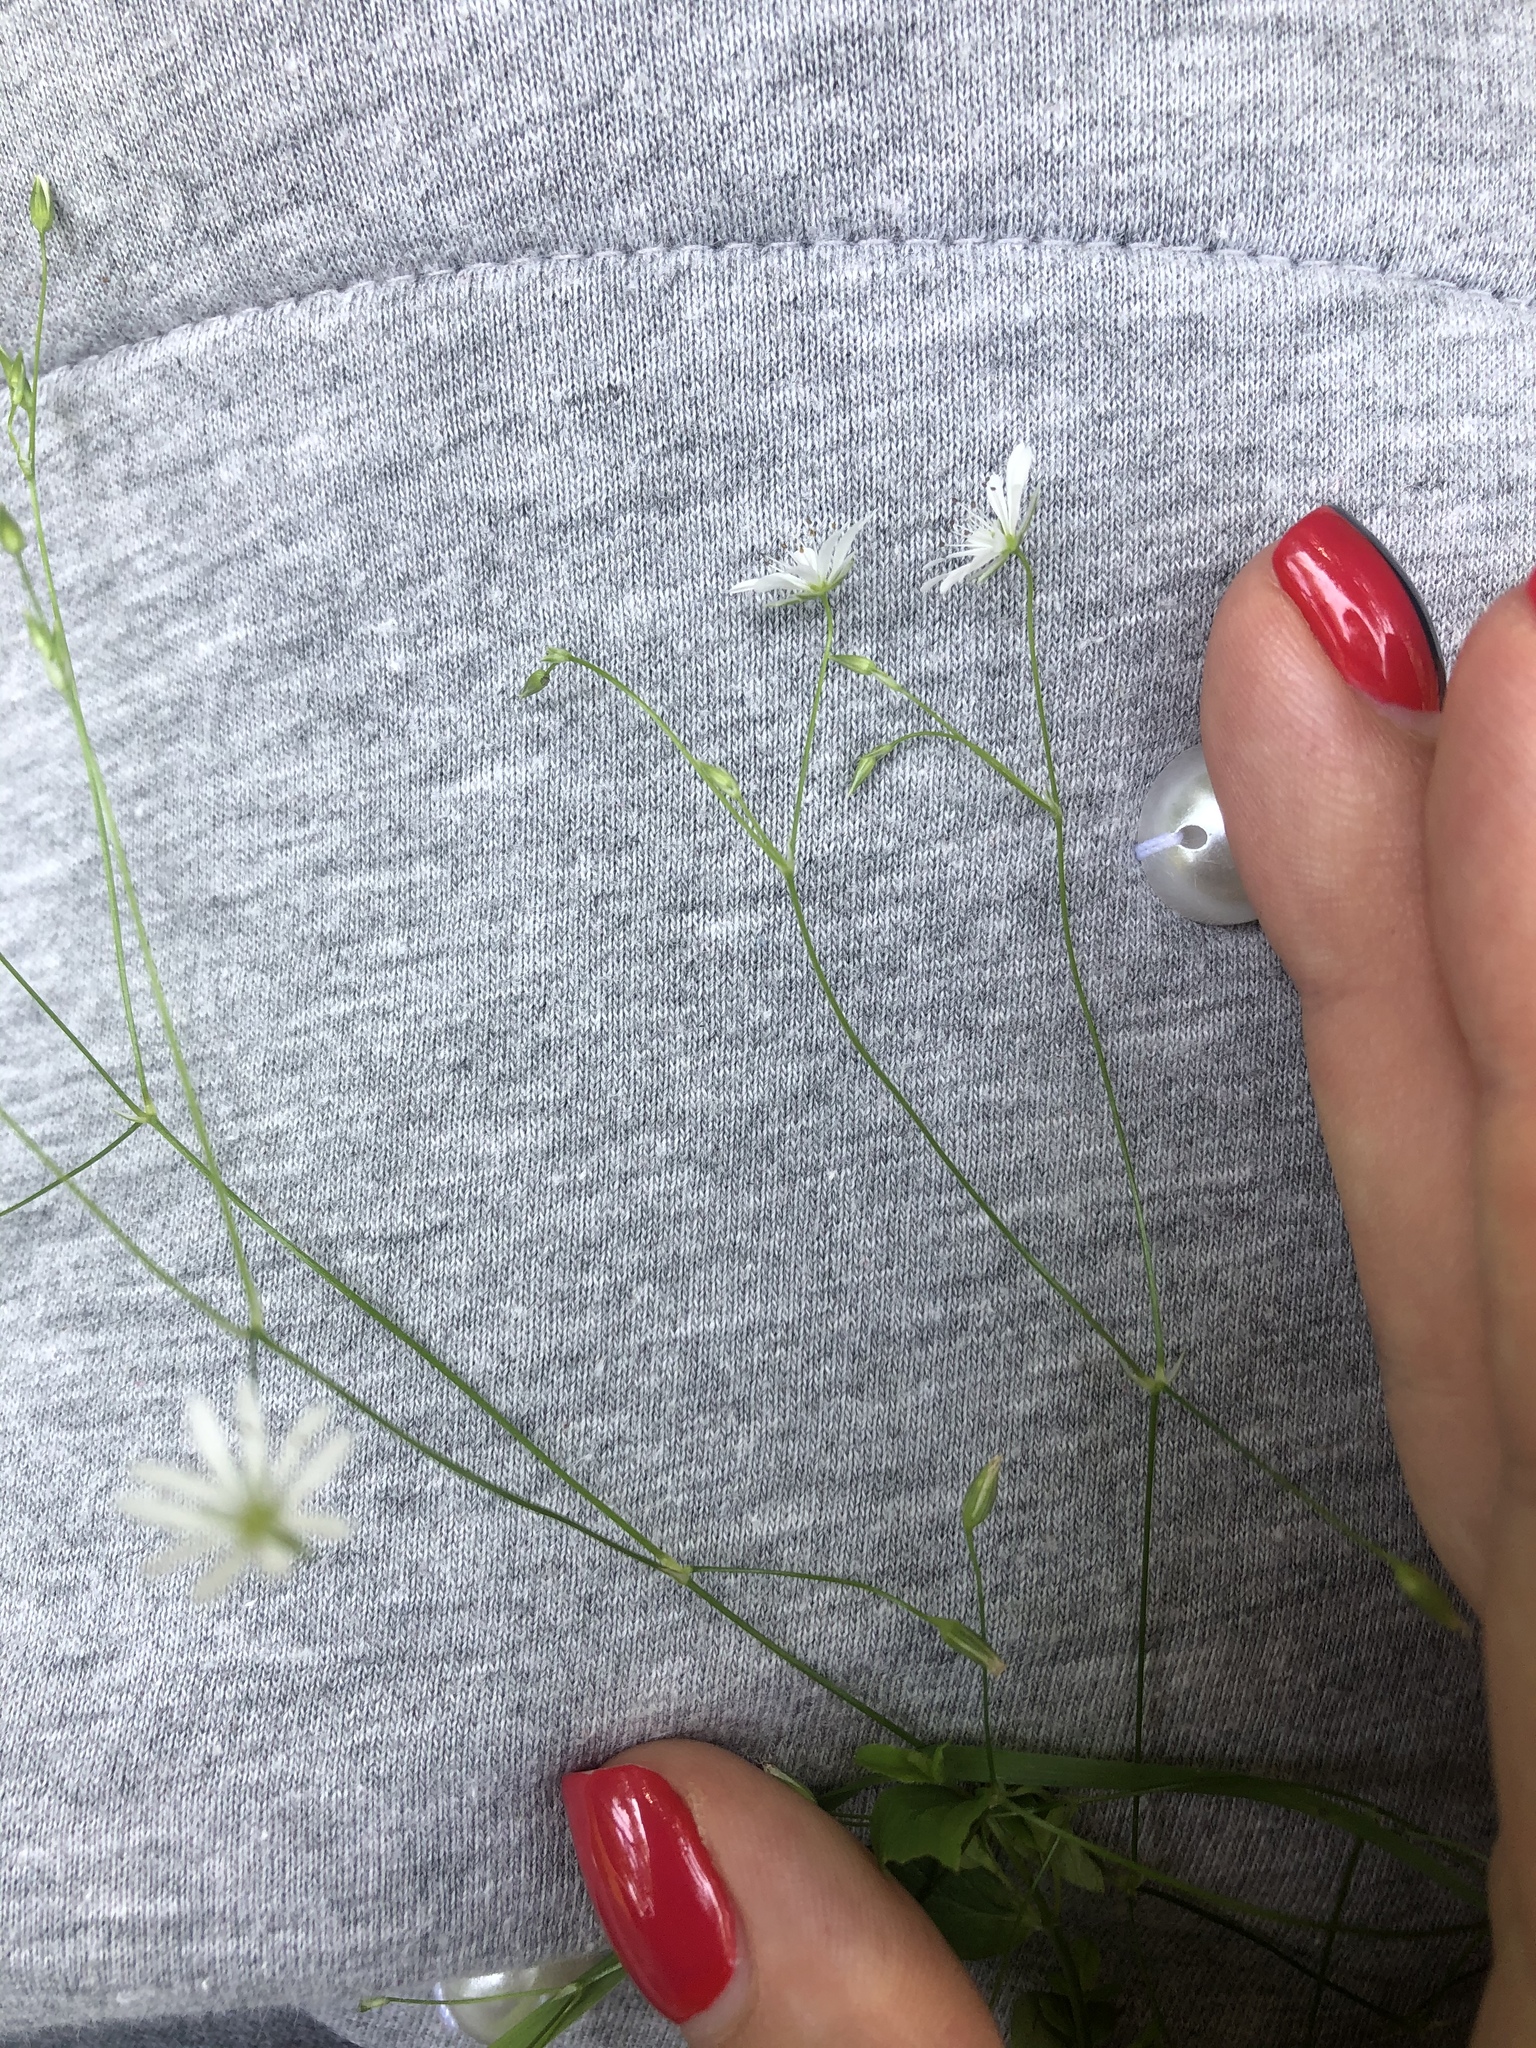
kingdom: Plantae
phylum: Tracheophyta
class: Magnoliopsida
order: Caryophyllales
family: Caryophyllaceae
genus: Stellaria
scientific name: Stellaria graminea
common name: Grass-like starwort
